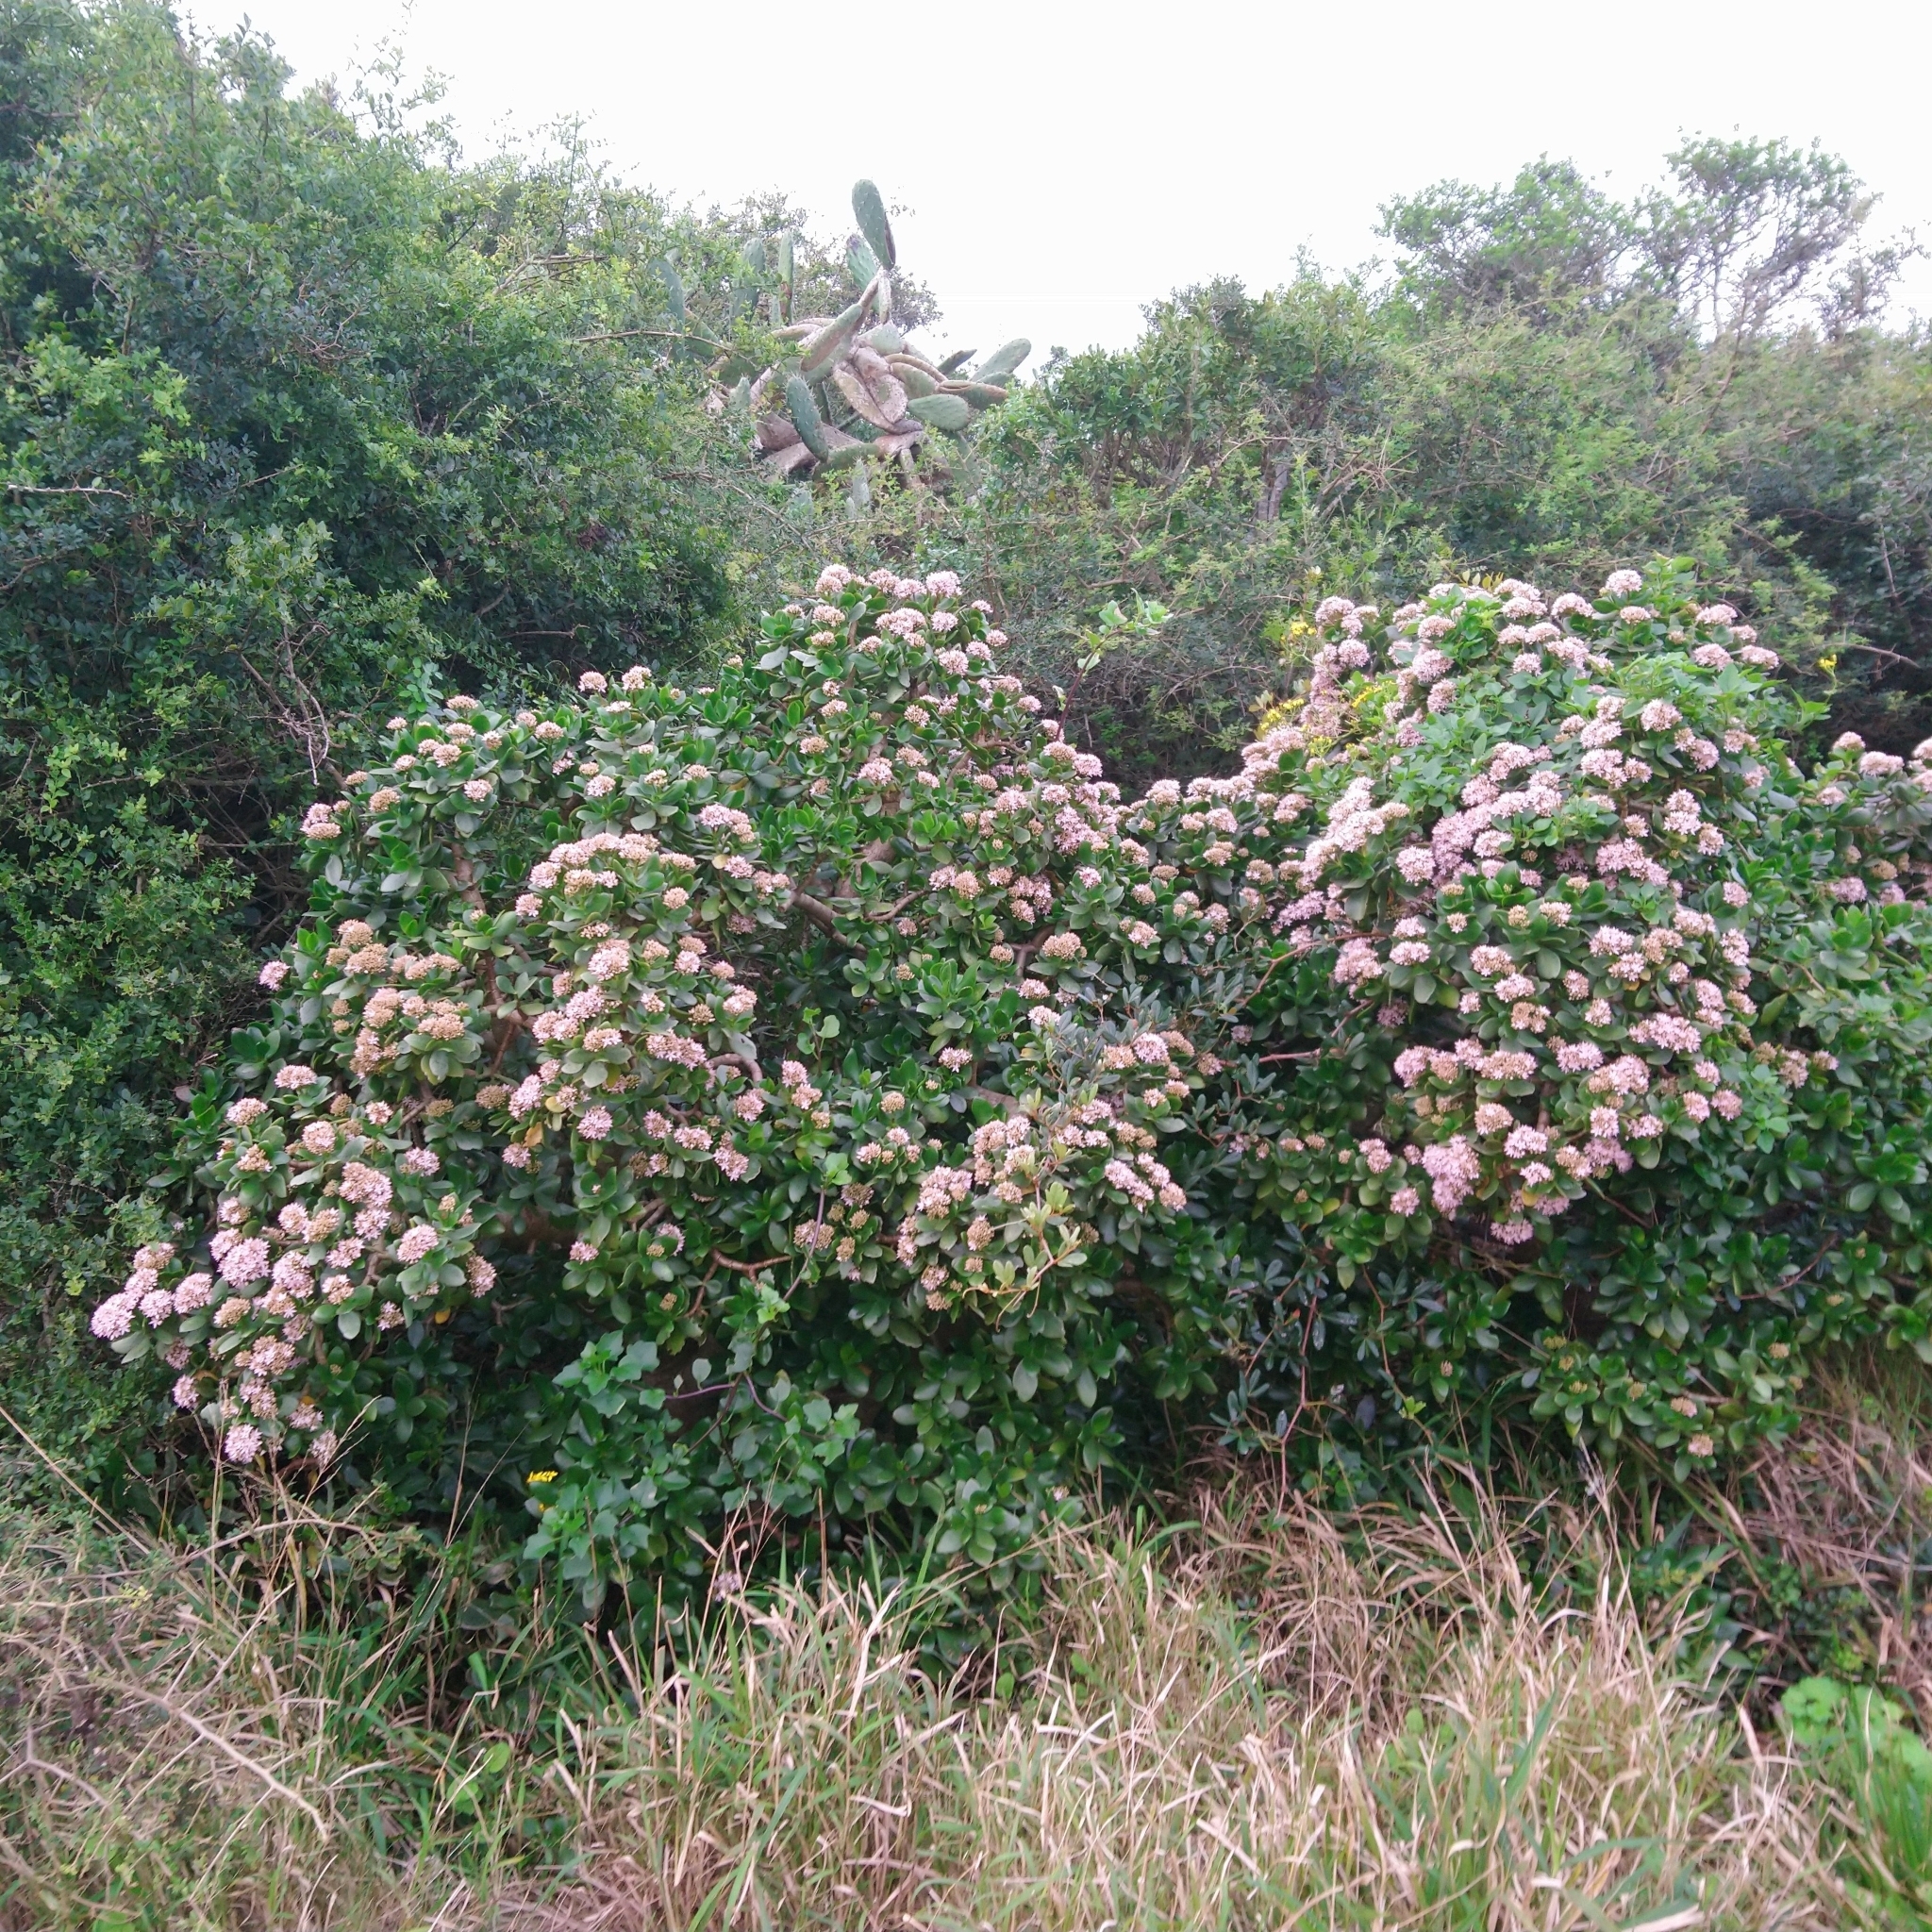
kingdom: Plantae
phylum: Tracheophyta
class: Magnoliopsida
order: Saxifragales
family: Crassulaceae
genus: Crassula
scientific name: Crassula ovata
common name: Jade plant
